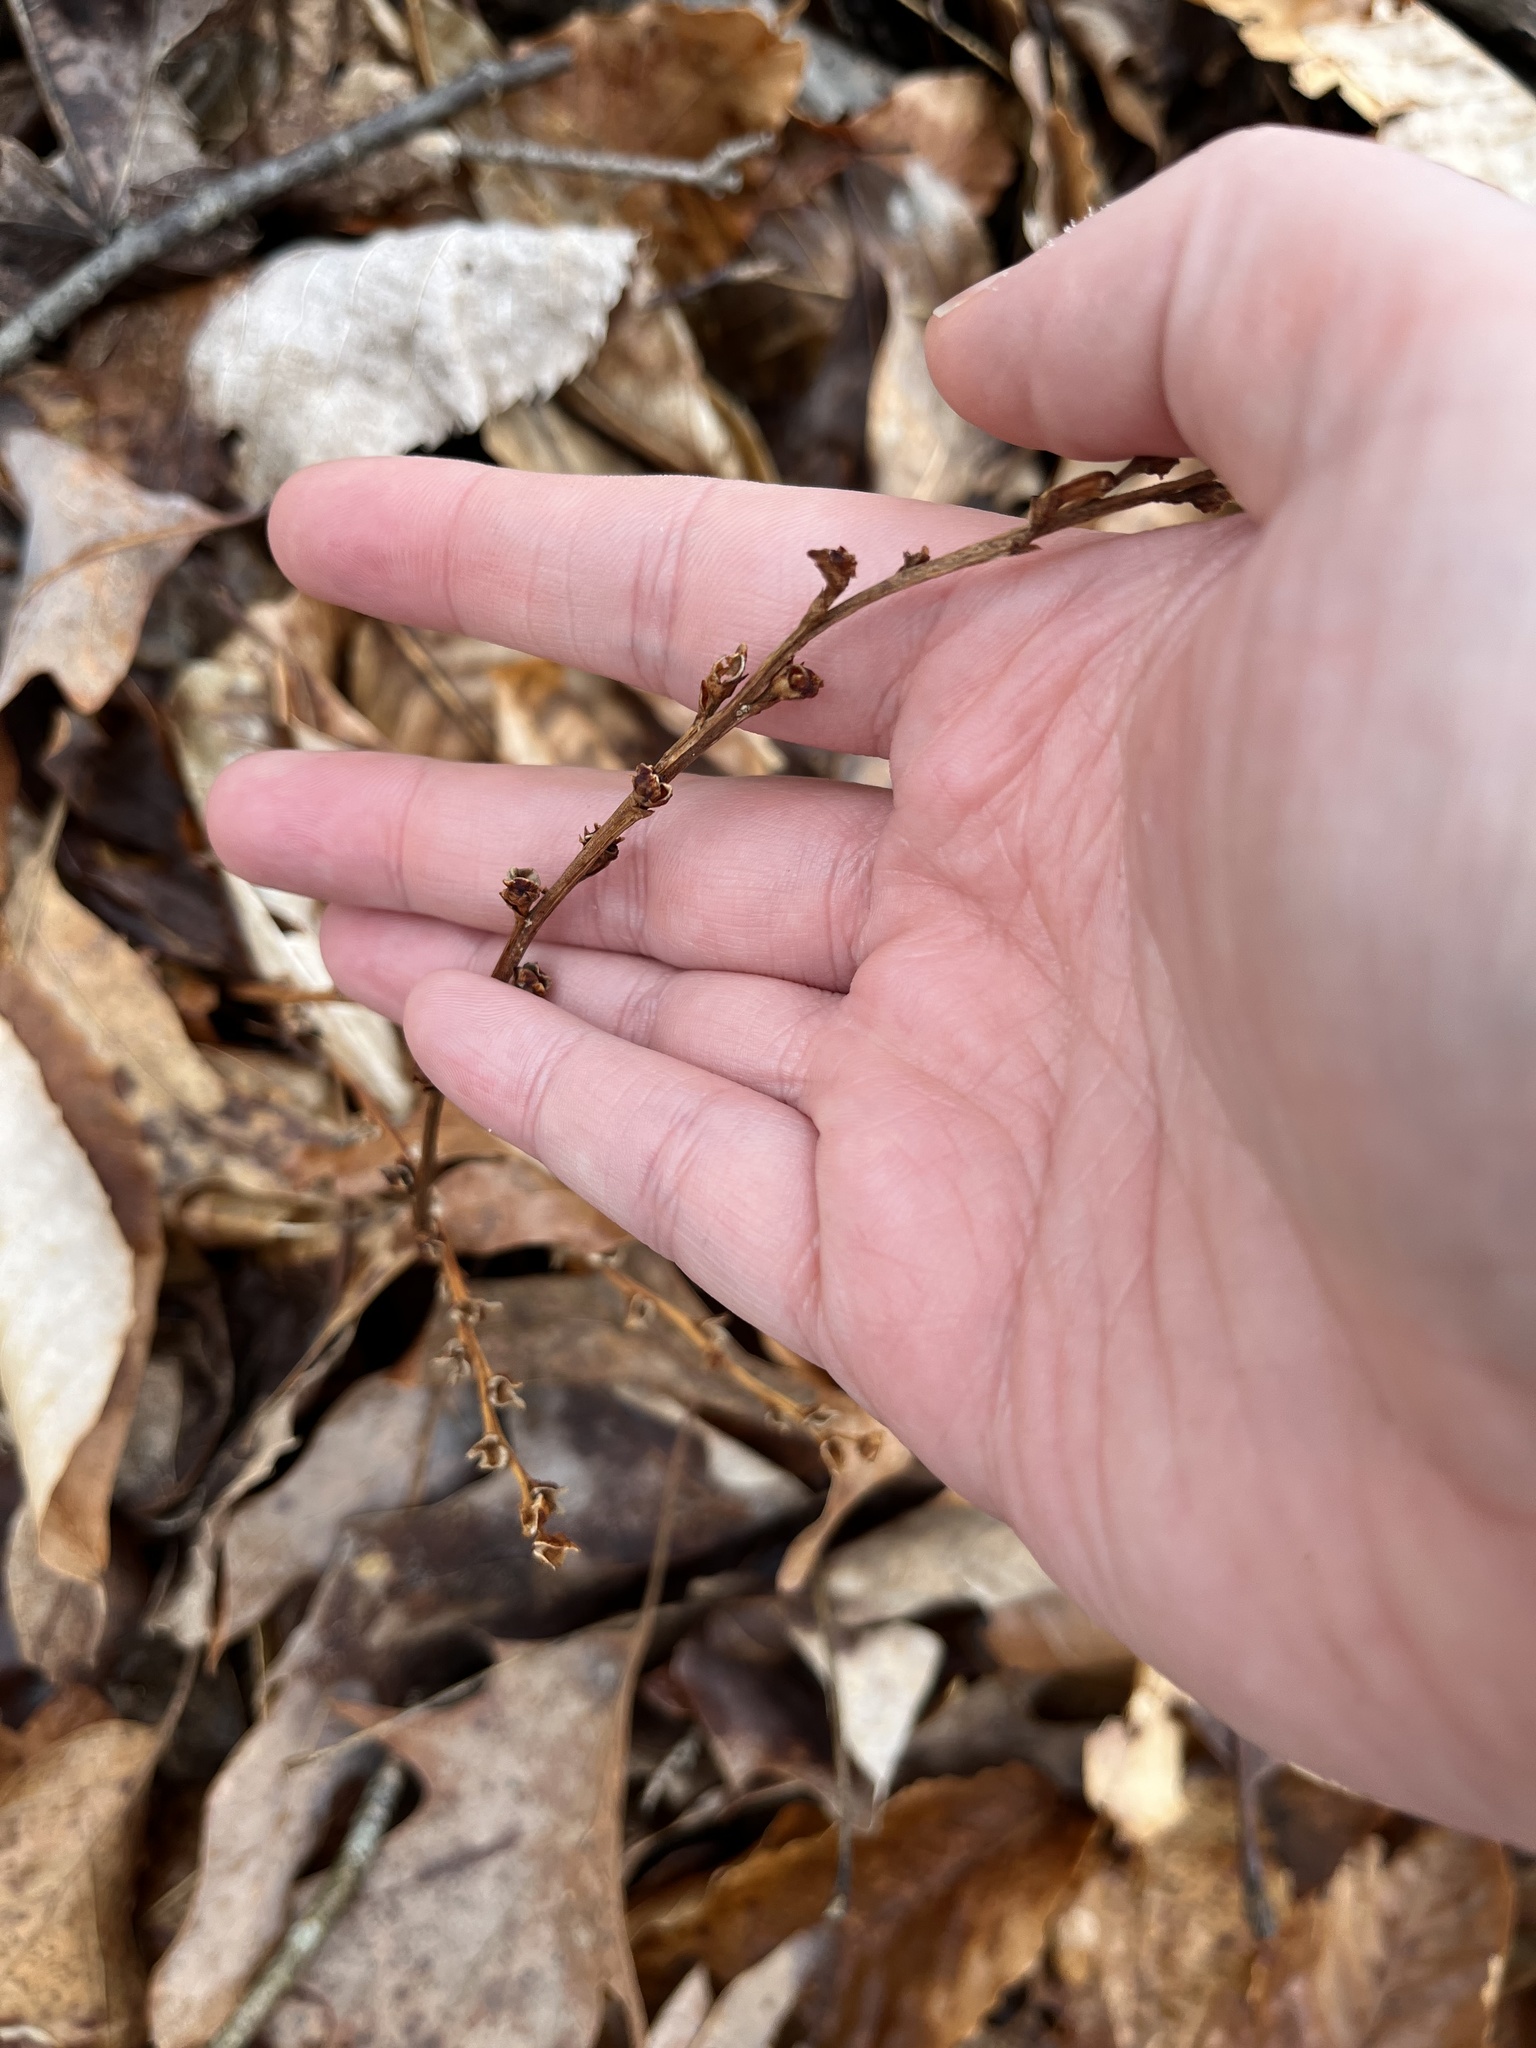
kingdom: Plantae
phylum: Tracheophyta
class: Magnoliopsida
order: Lamiales
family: Orobanchaceae
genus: Epifagus
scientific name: Epifagus virginiana
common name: Beechdrops
